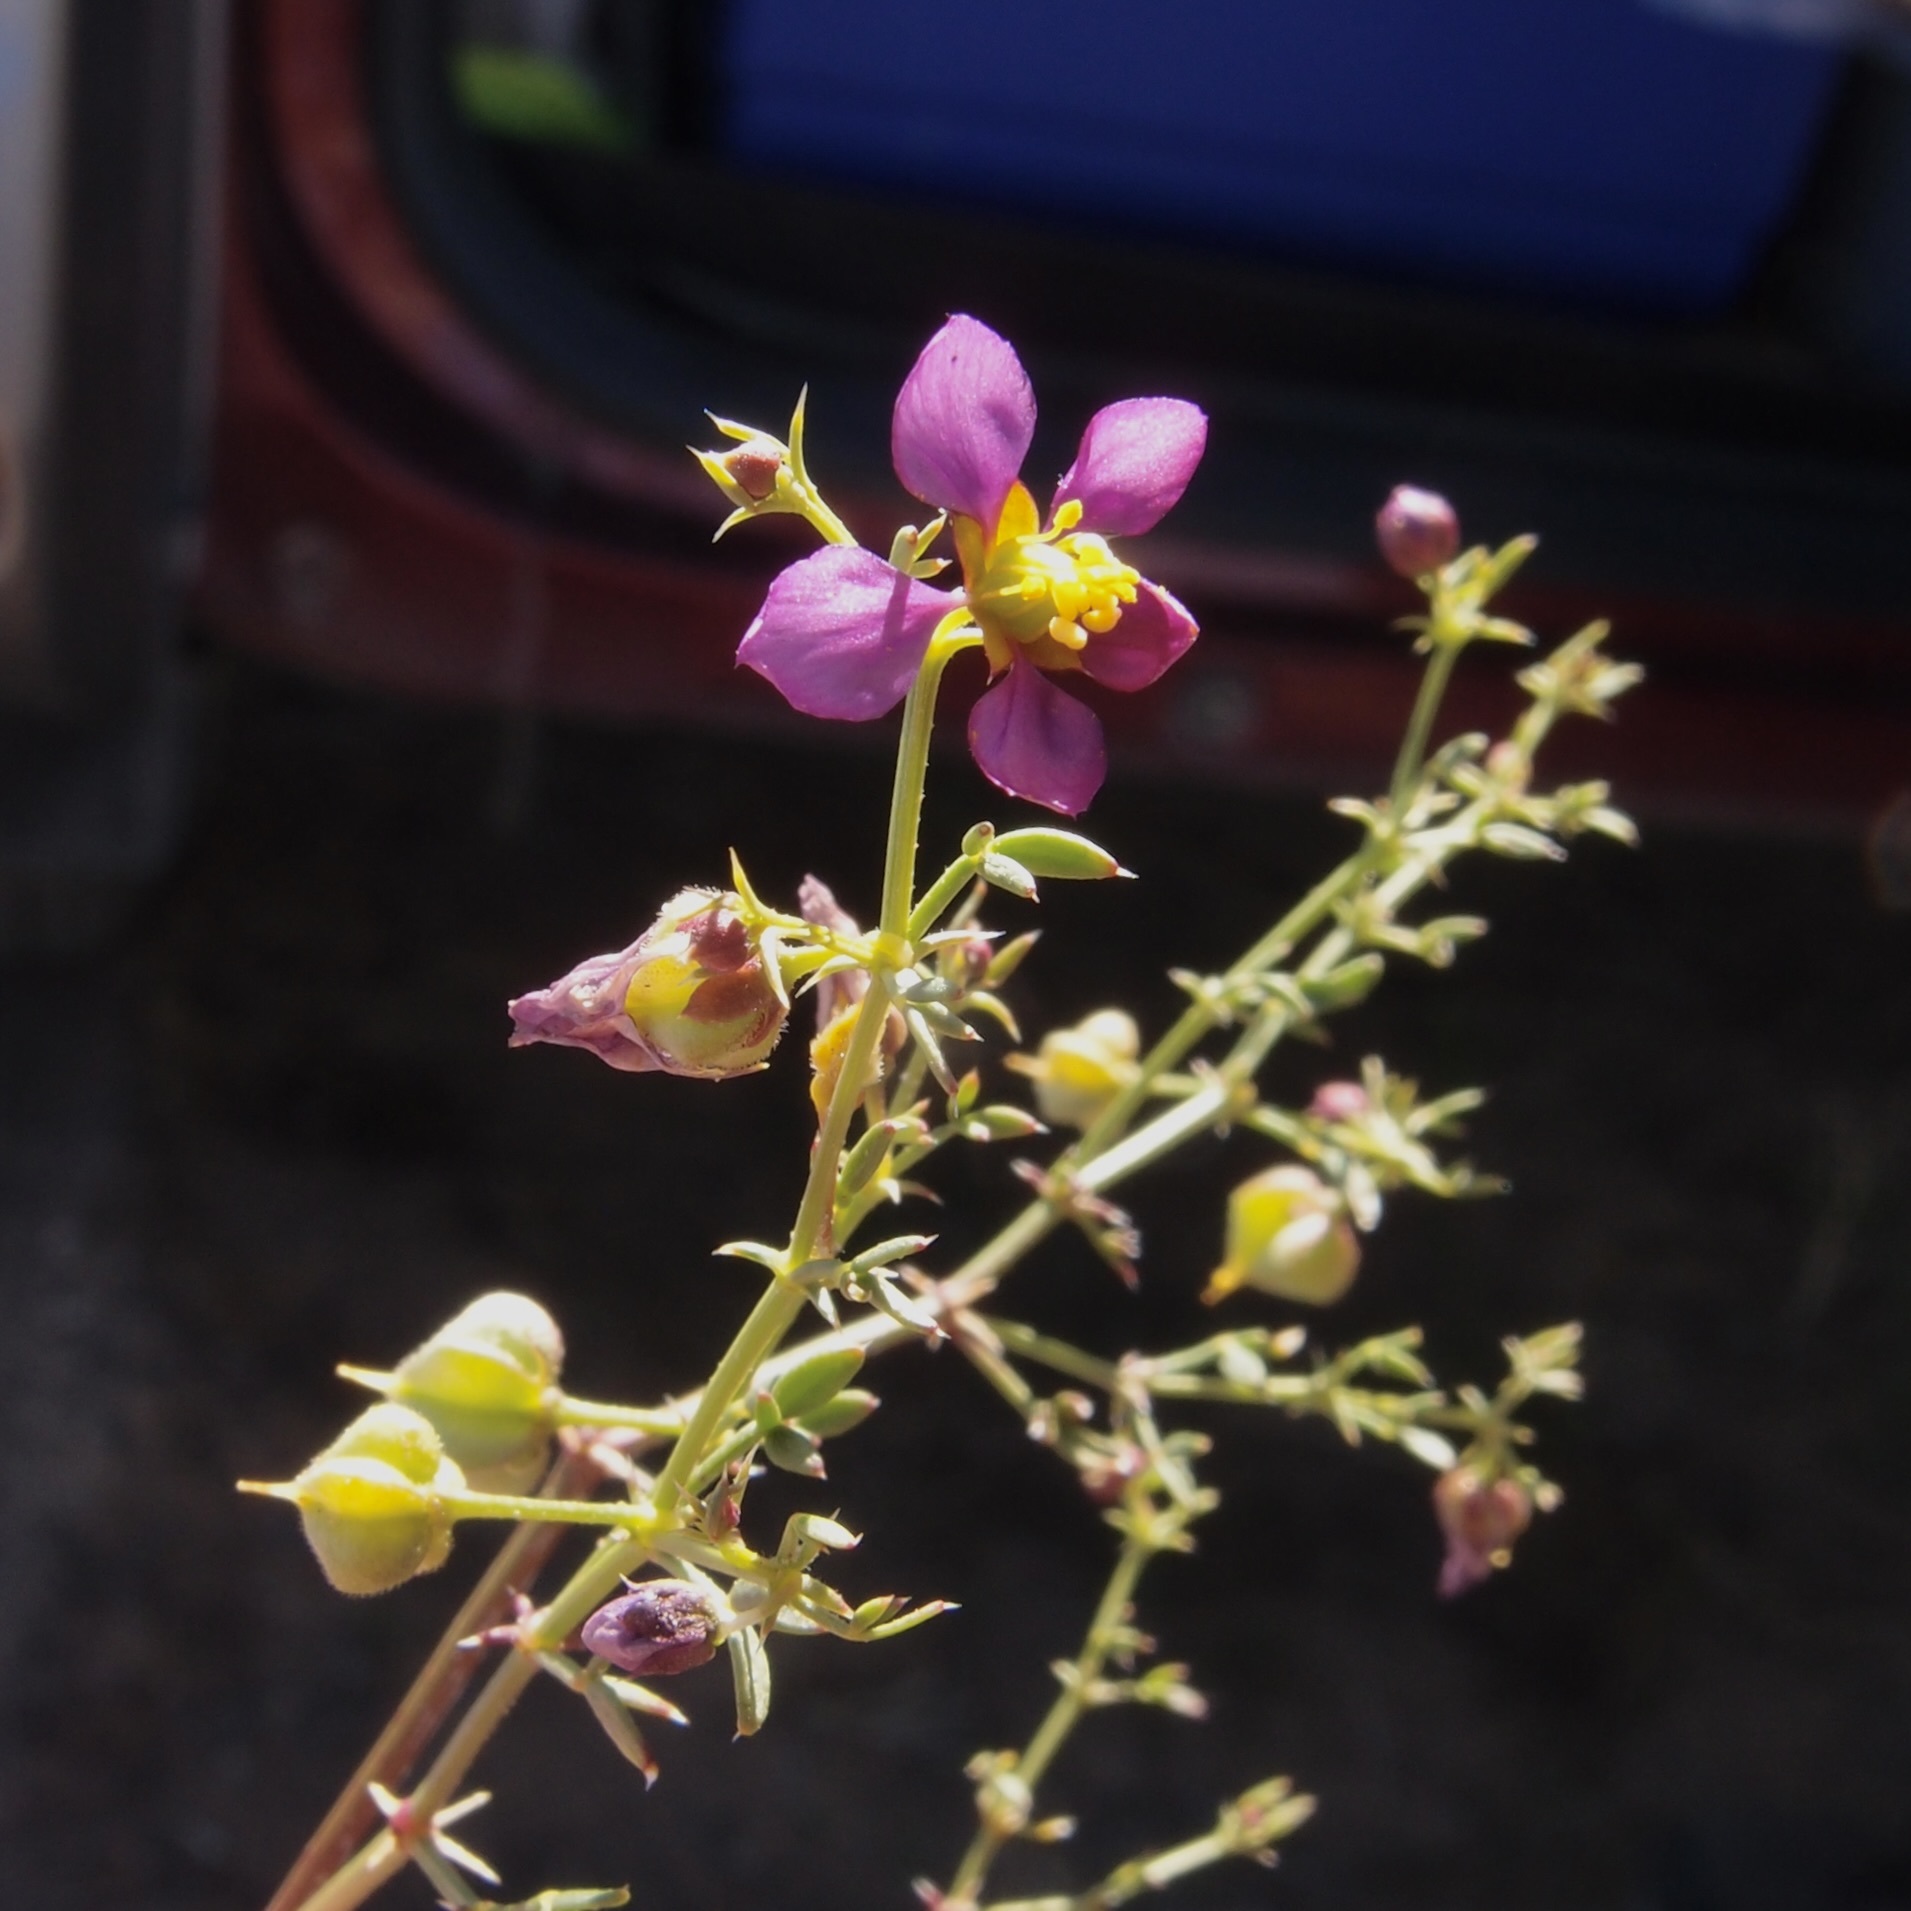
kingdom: Plantae
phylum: Tracheophyta
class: Magnoliopsida
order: Zygophyllales
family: Zygophyllaceae
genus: Fagonia
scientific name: Fagonia laevis
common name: California fagonbush
